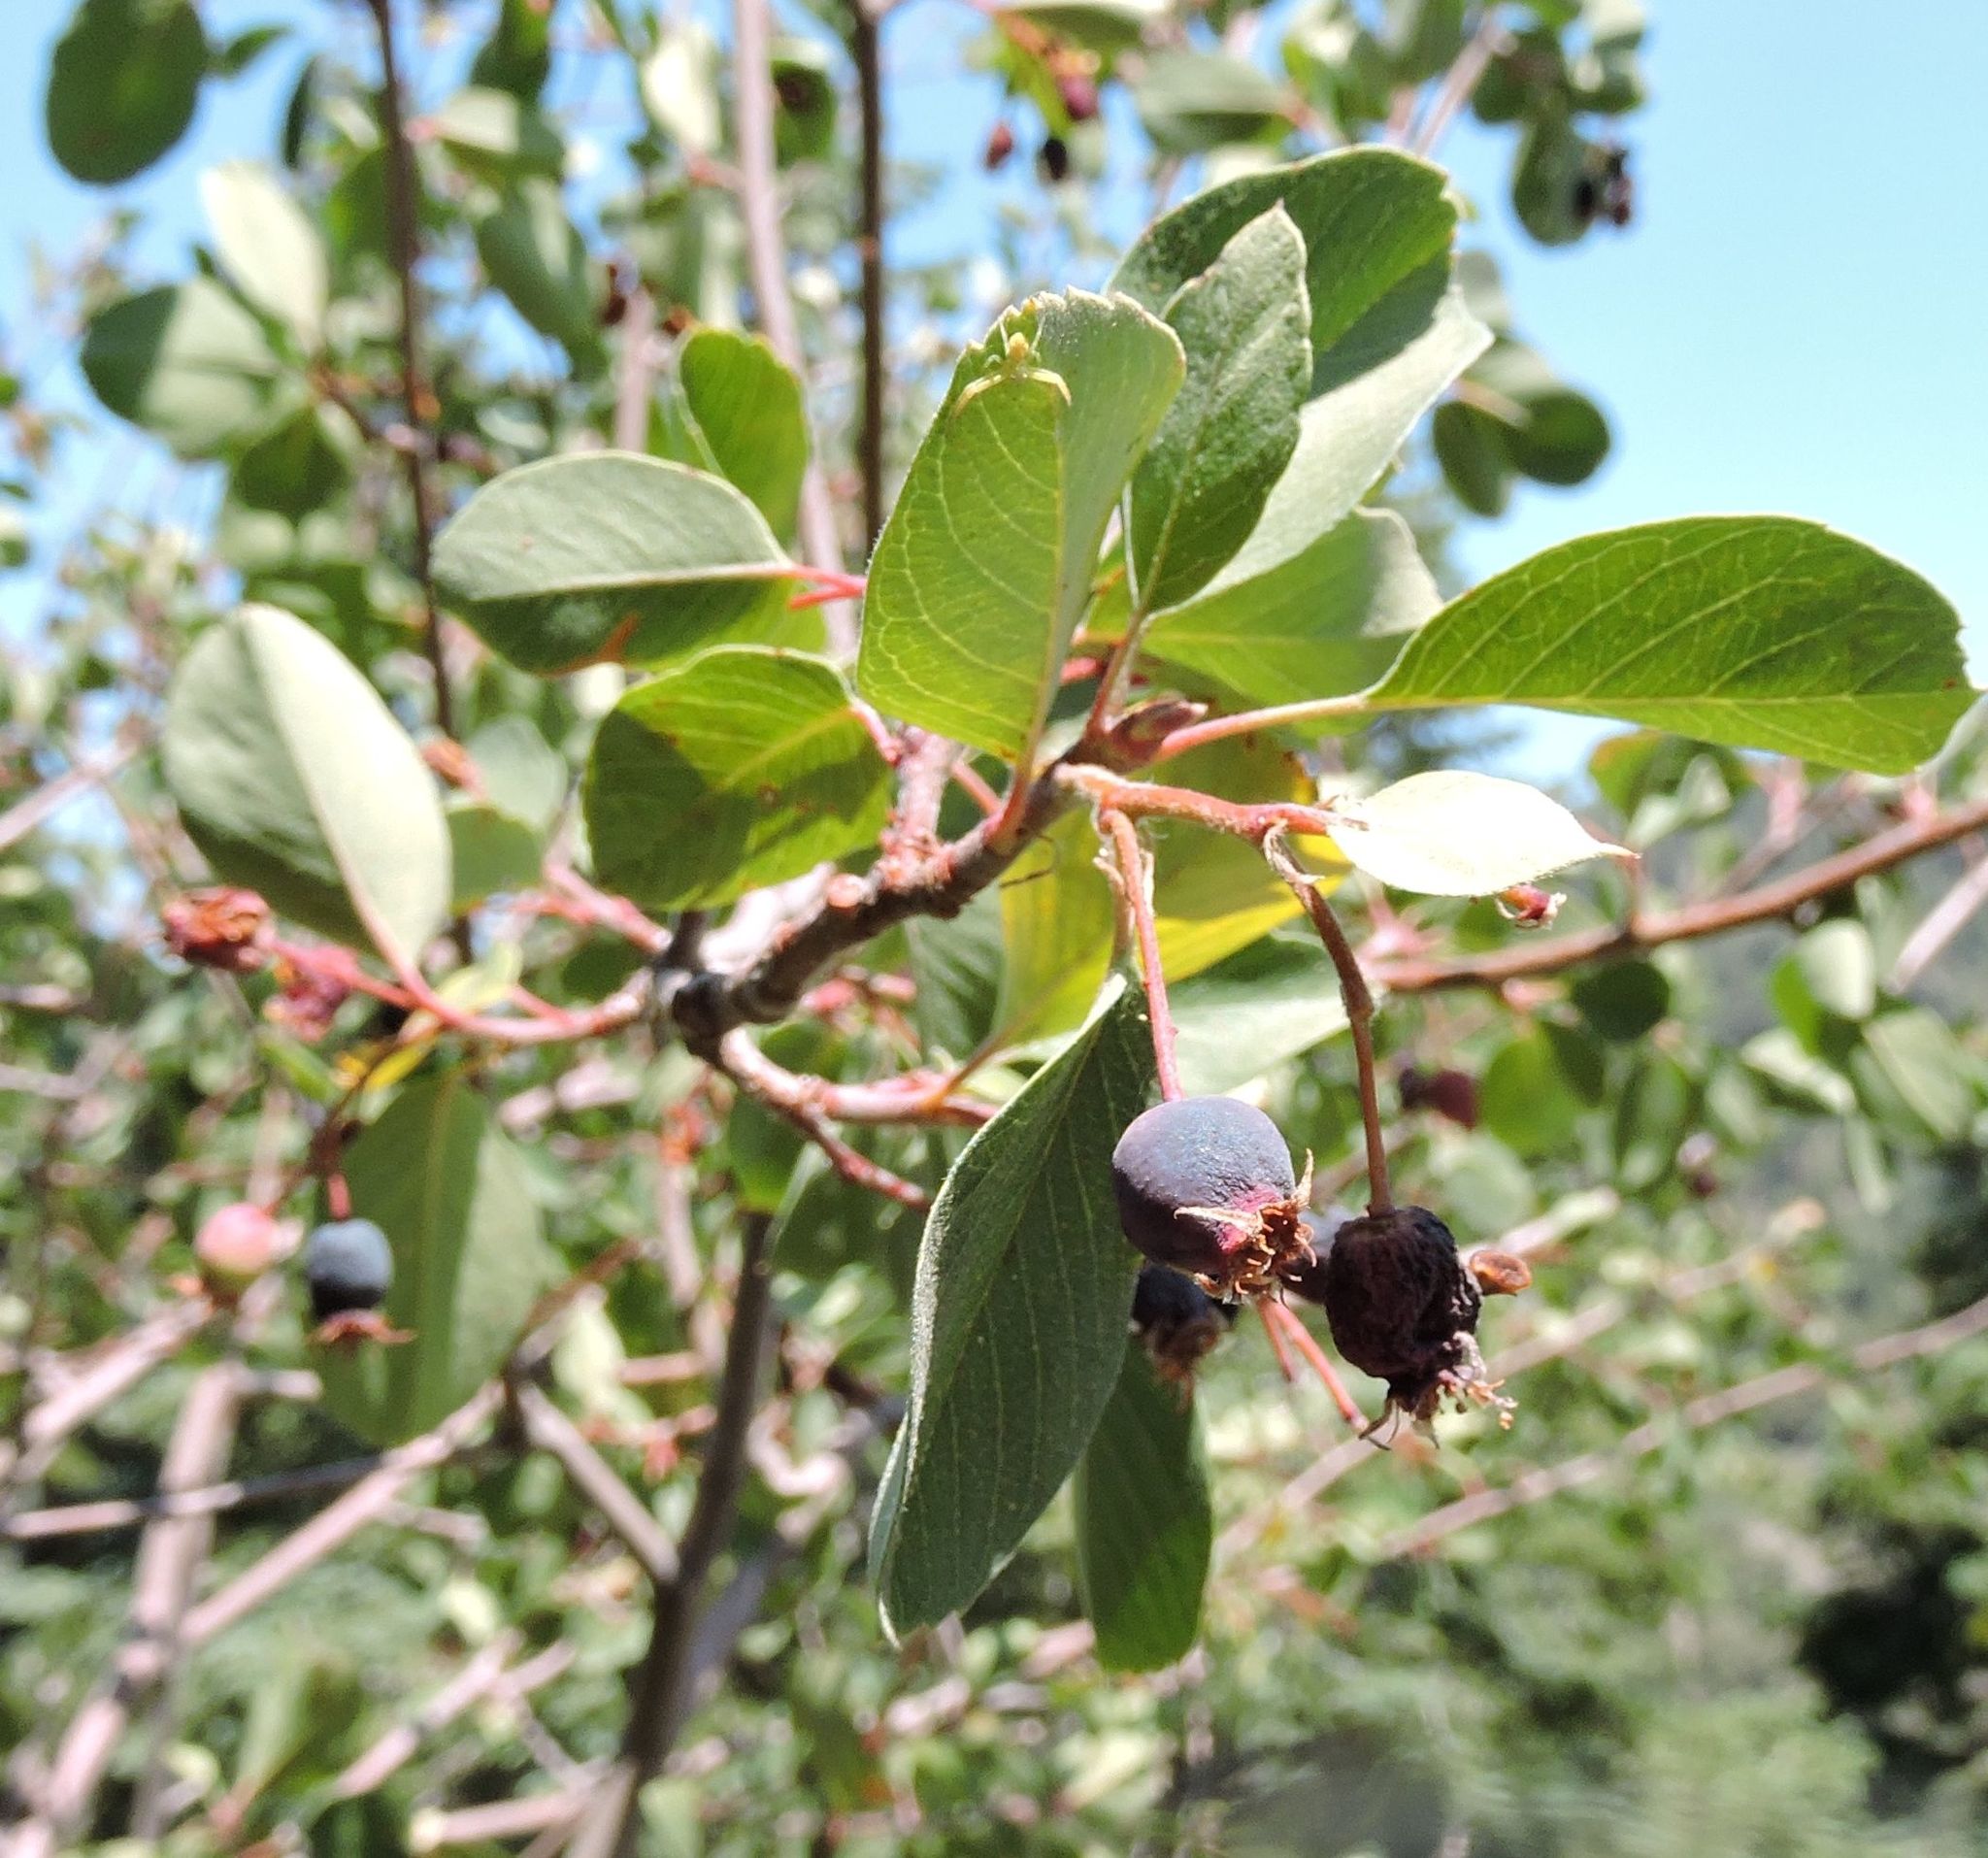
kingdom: Plantae
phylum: Tracheophyta
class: Magnoliopsida
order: Rosales
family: Rosaceae
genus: Amelanchier
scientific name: Amelanchier utahensis
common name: Utah serviceberry
